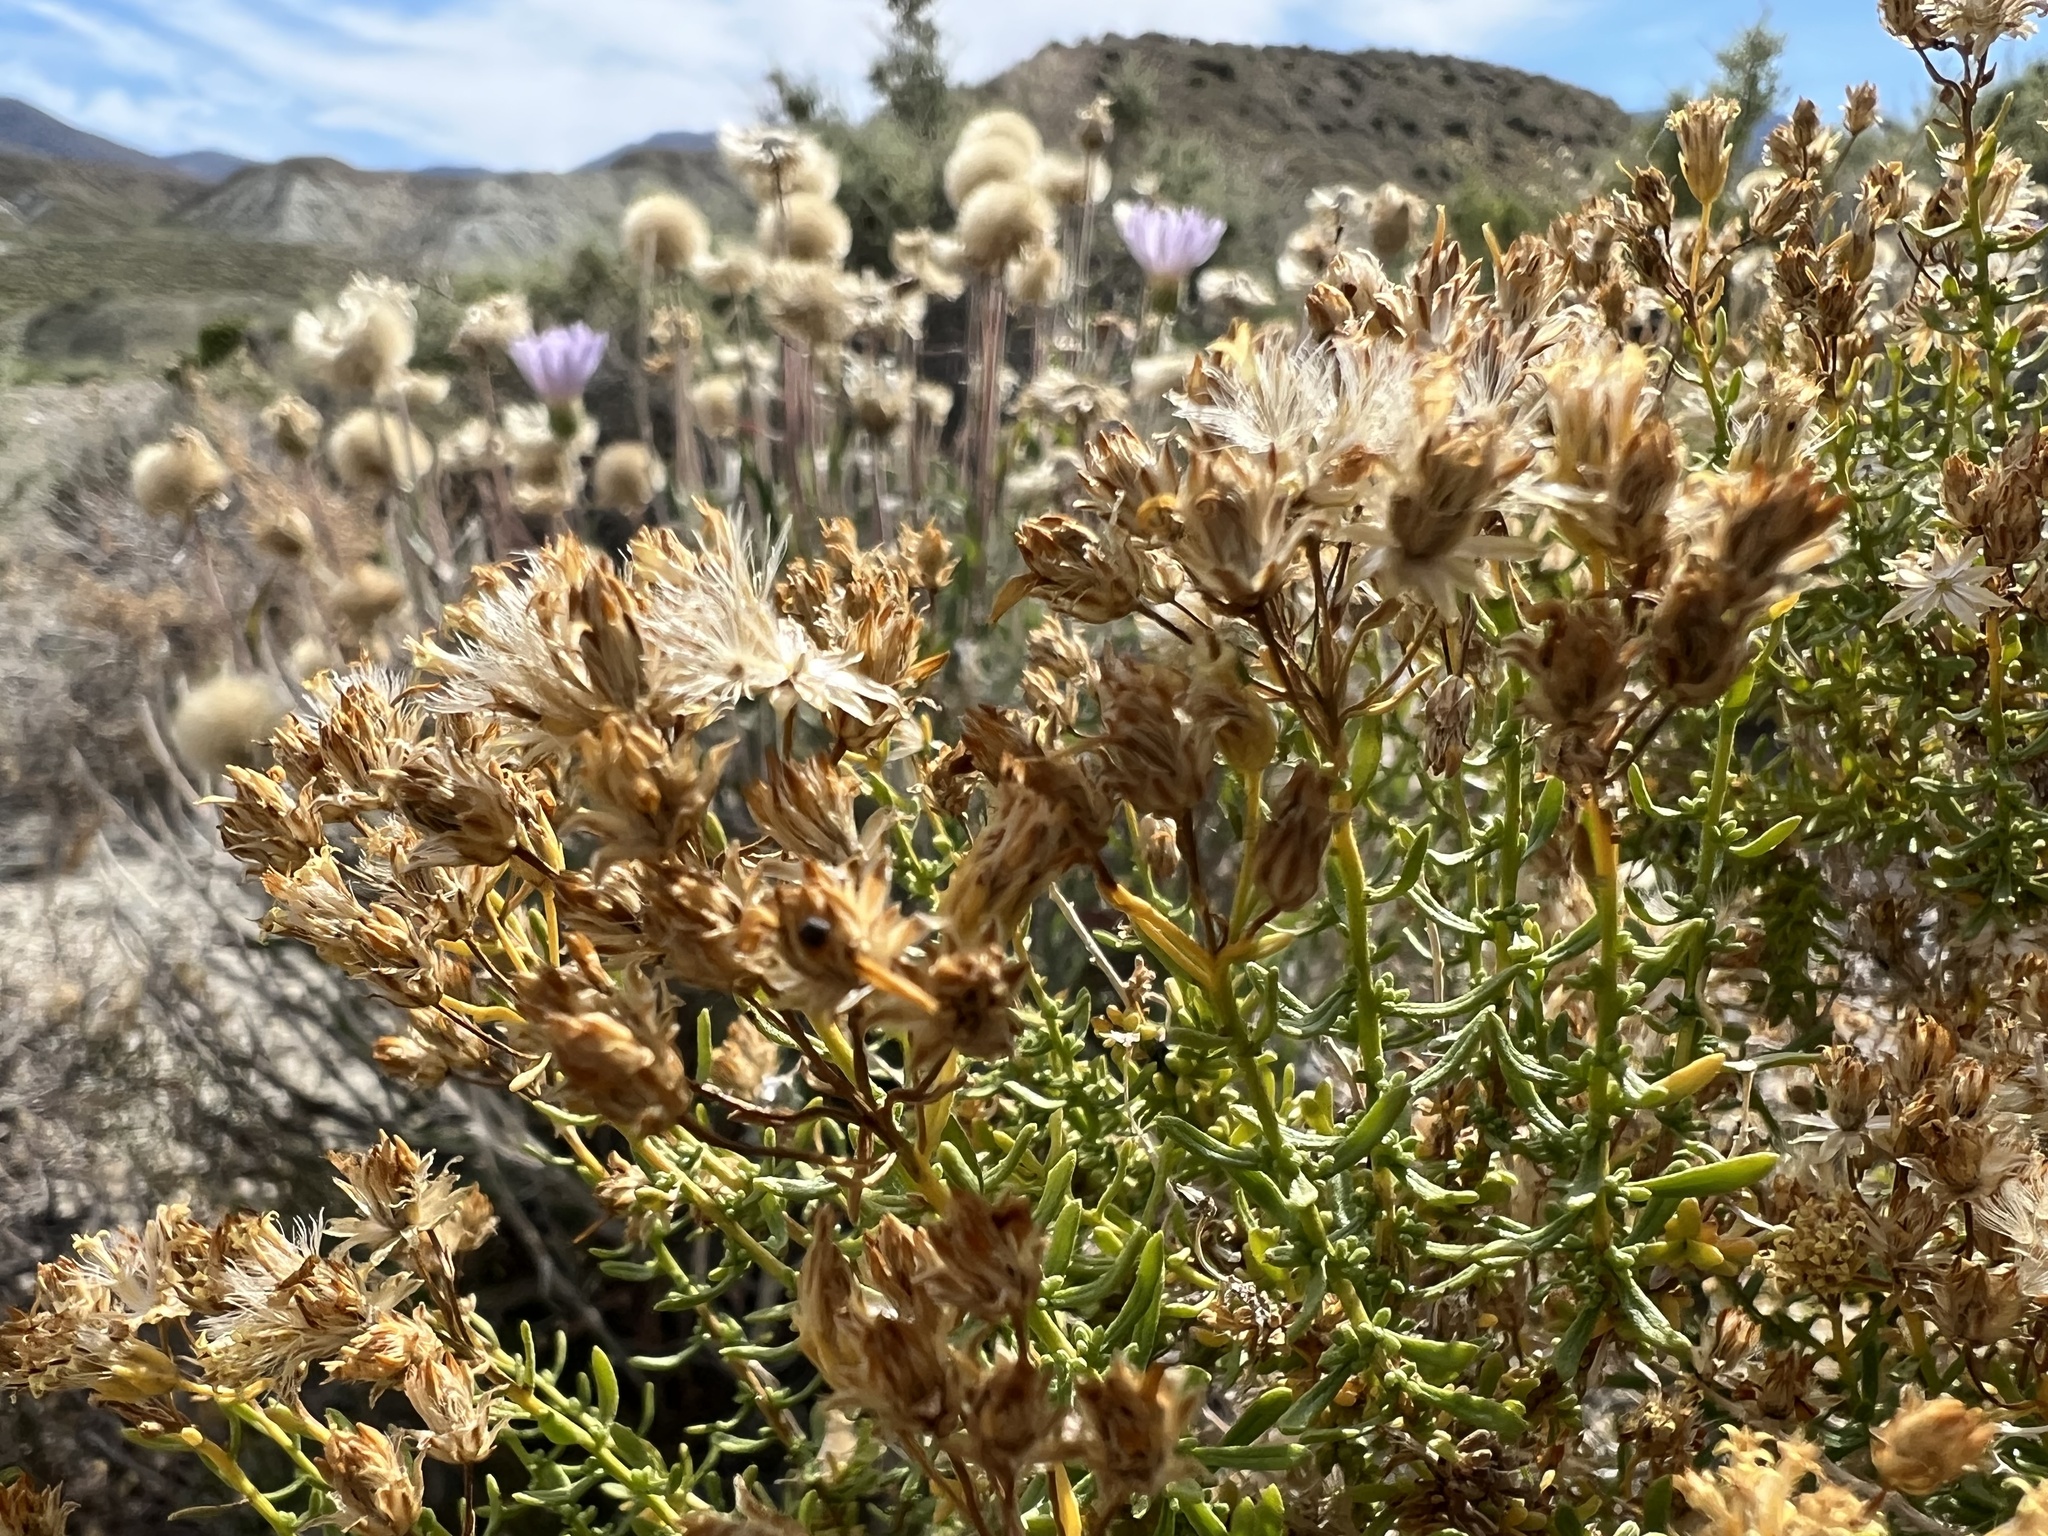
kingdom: Plantae
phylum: Tracheophyta
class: Magnoliopsida
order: Asterales
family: Asteraceae
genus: Ericameria
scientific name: Ericameria cooperi
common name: Cooper's goldenbush
